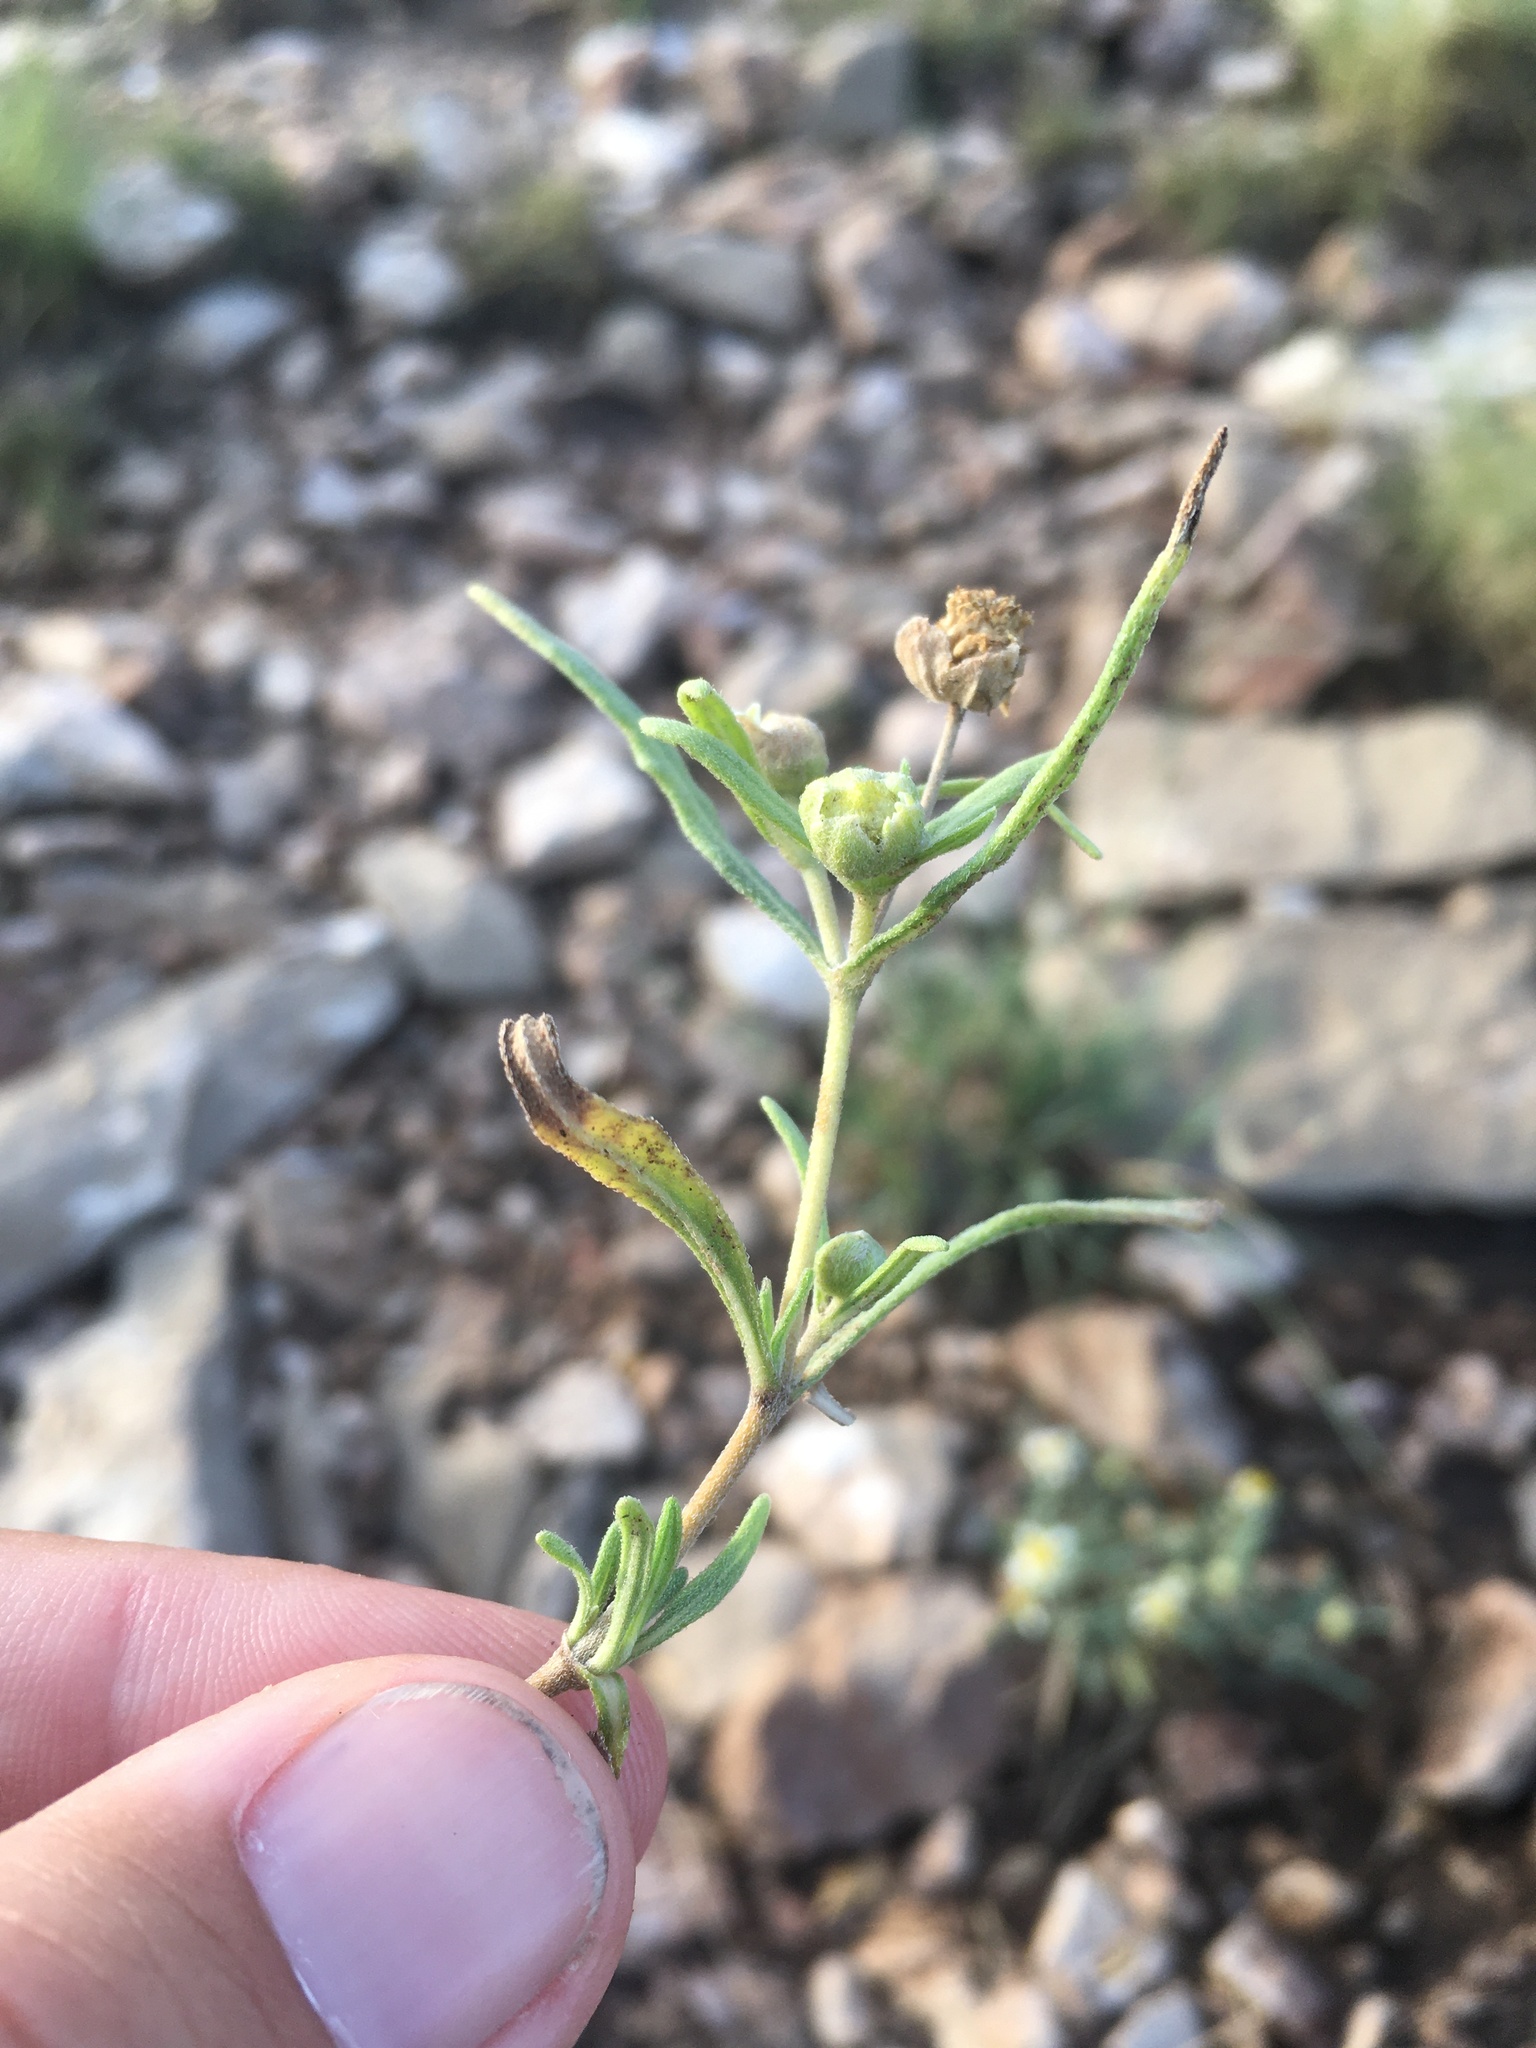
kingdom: Plantae
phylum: Tracheophyta
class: Magnoliopsida
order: Asterales
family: Asteraceae
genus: Melampodium
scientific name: Melampodium leucanthum
